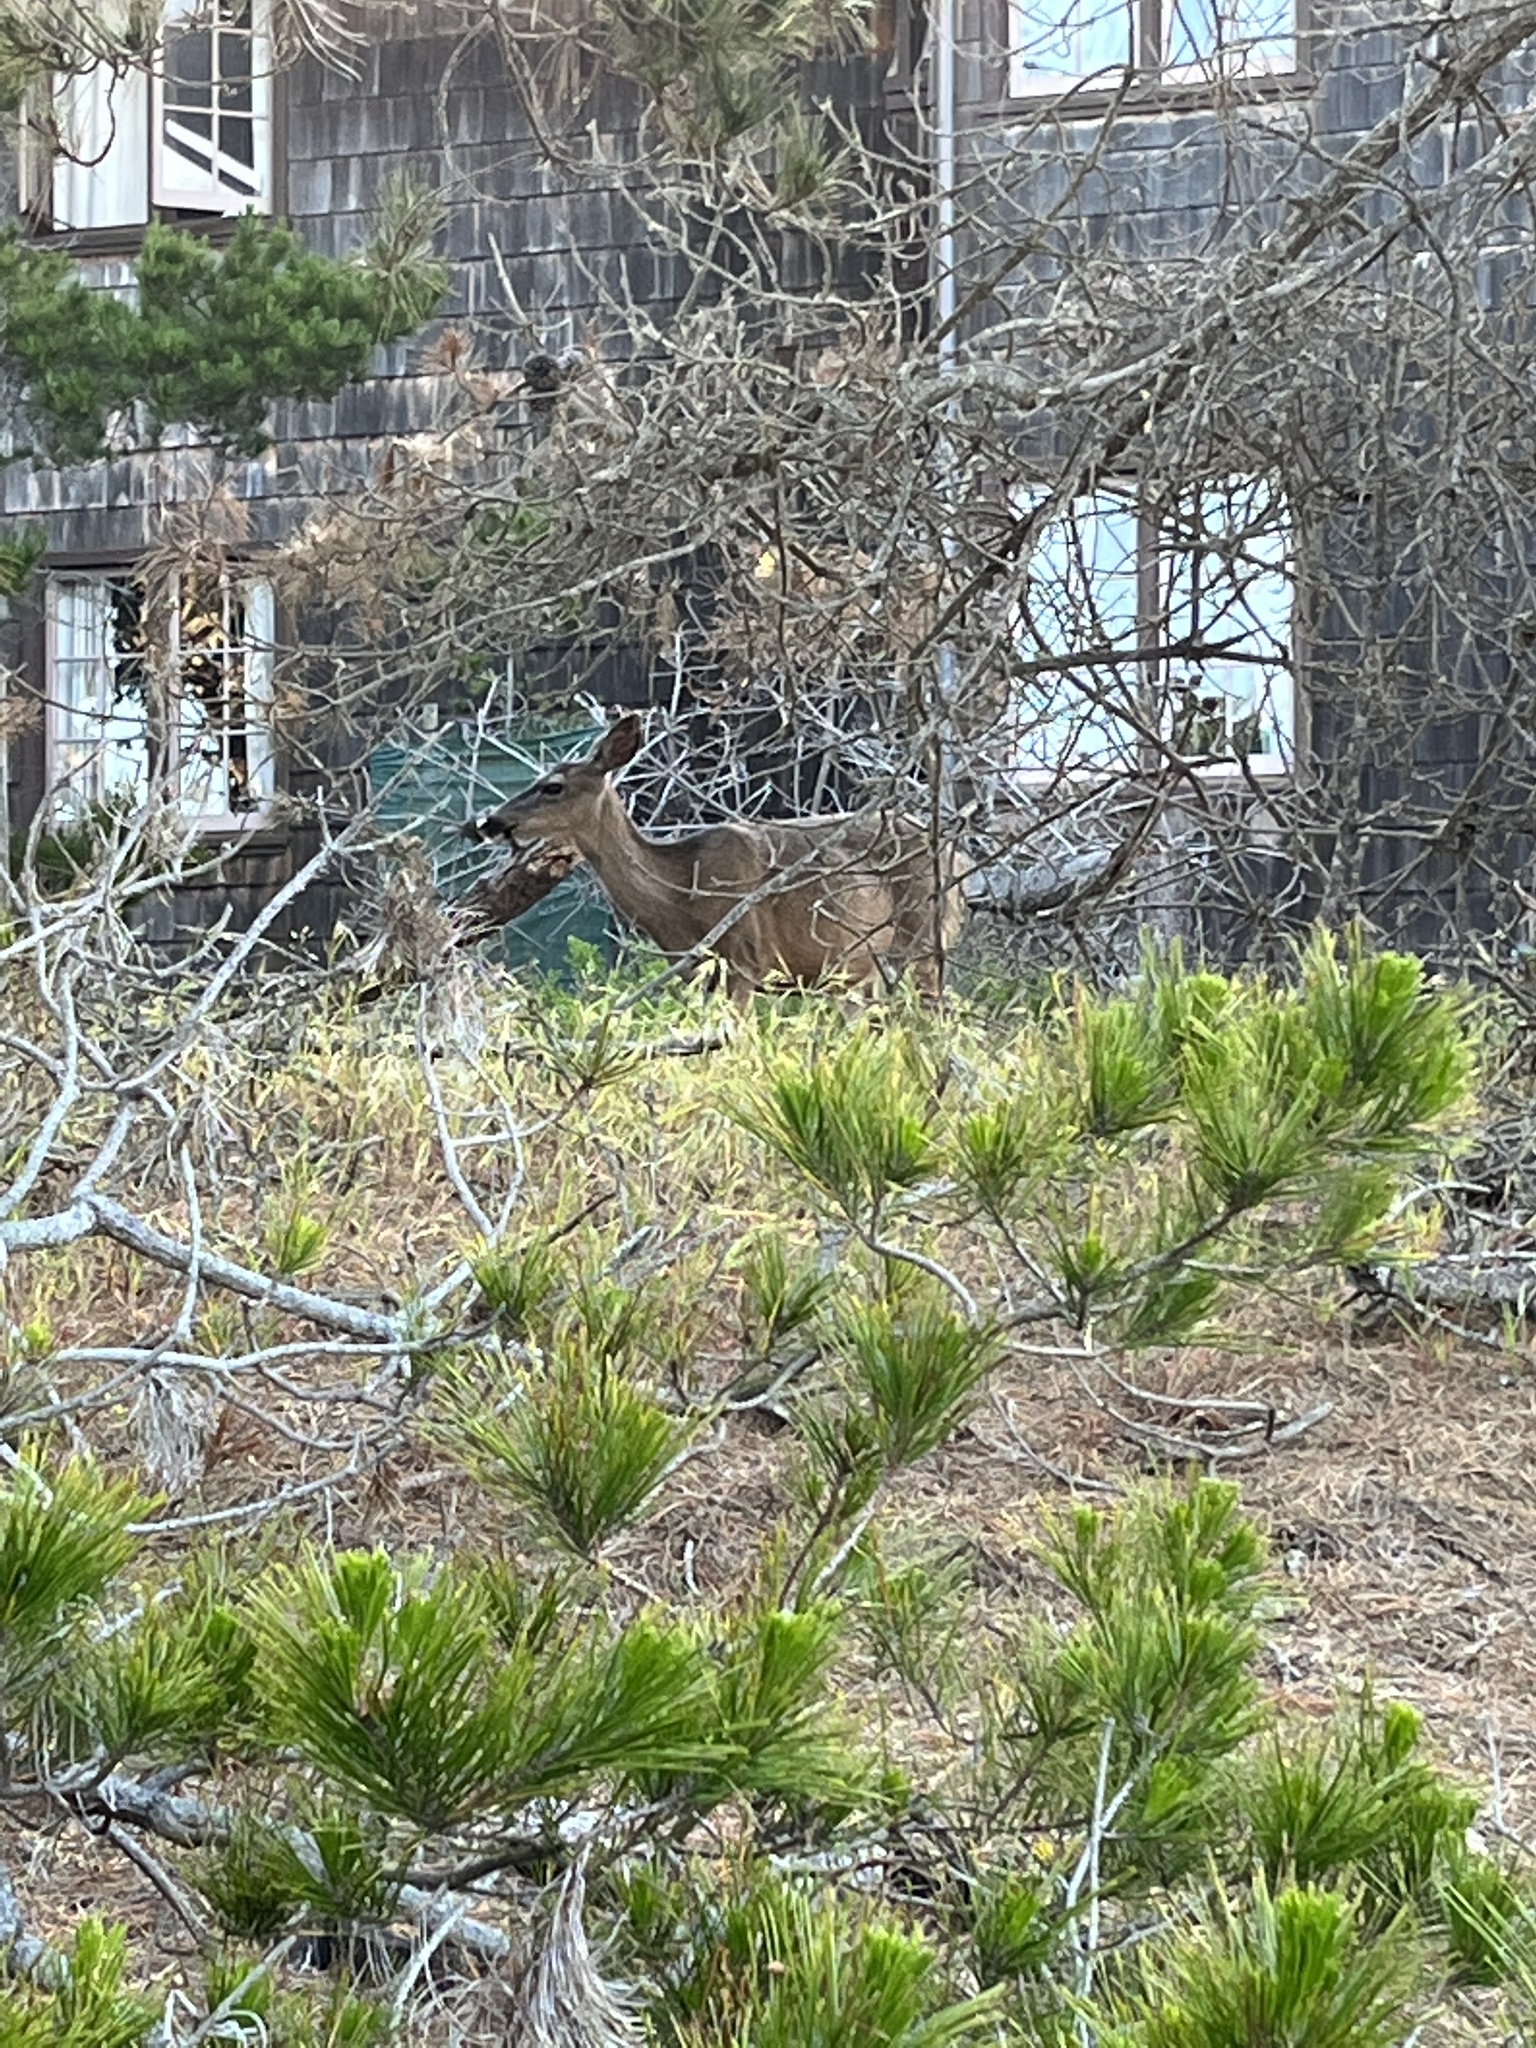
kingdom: Animalia
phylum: Chordata
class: Mammalia
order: Artiodactyla
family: Cervidae
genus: Odocoileus
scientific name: Odocoileus hemionus
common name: Mule deer
